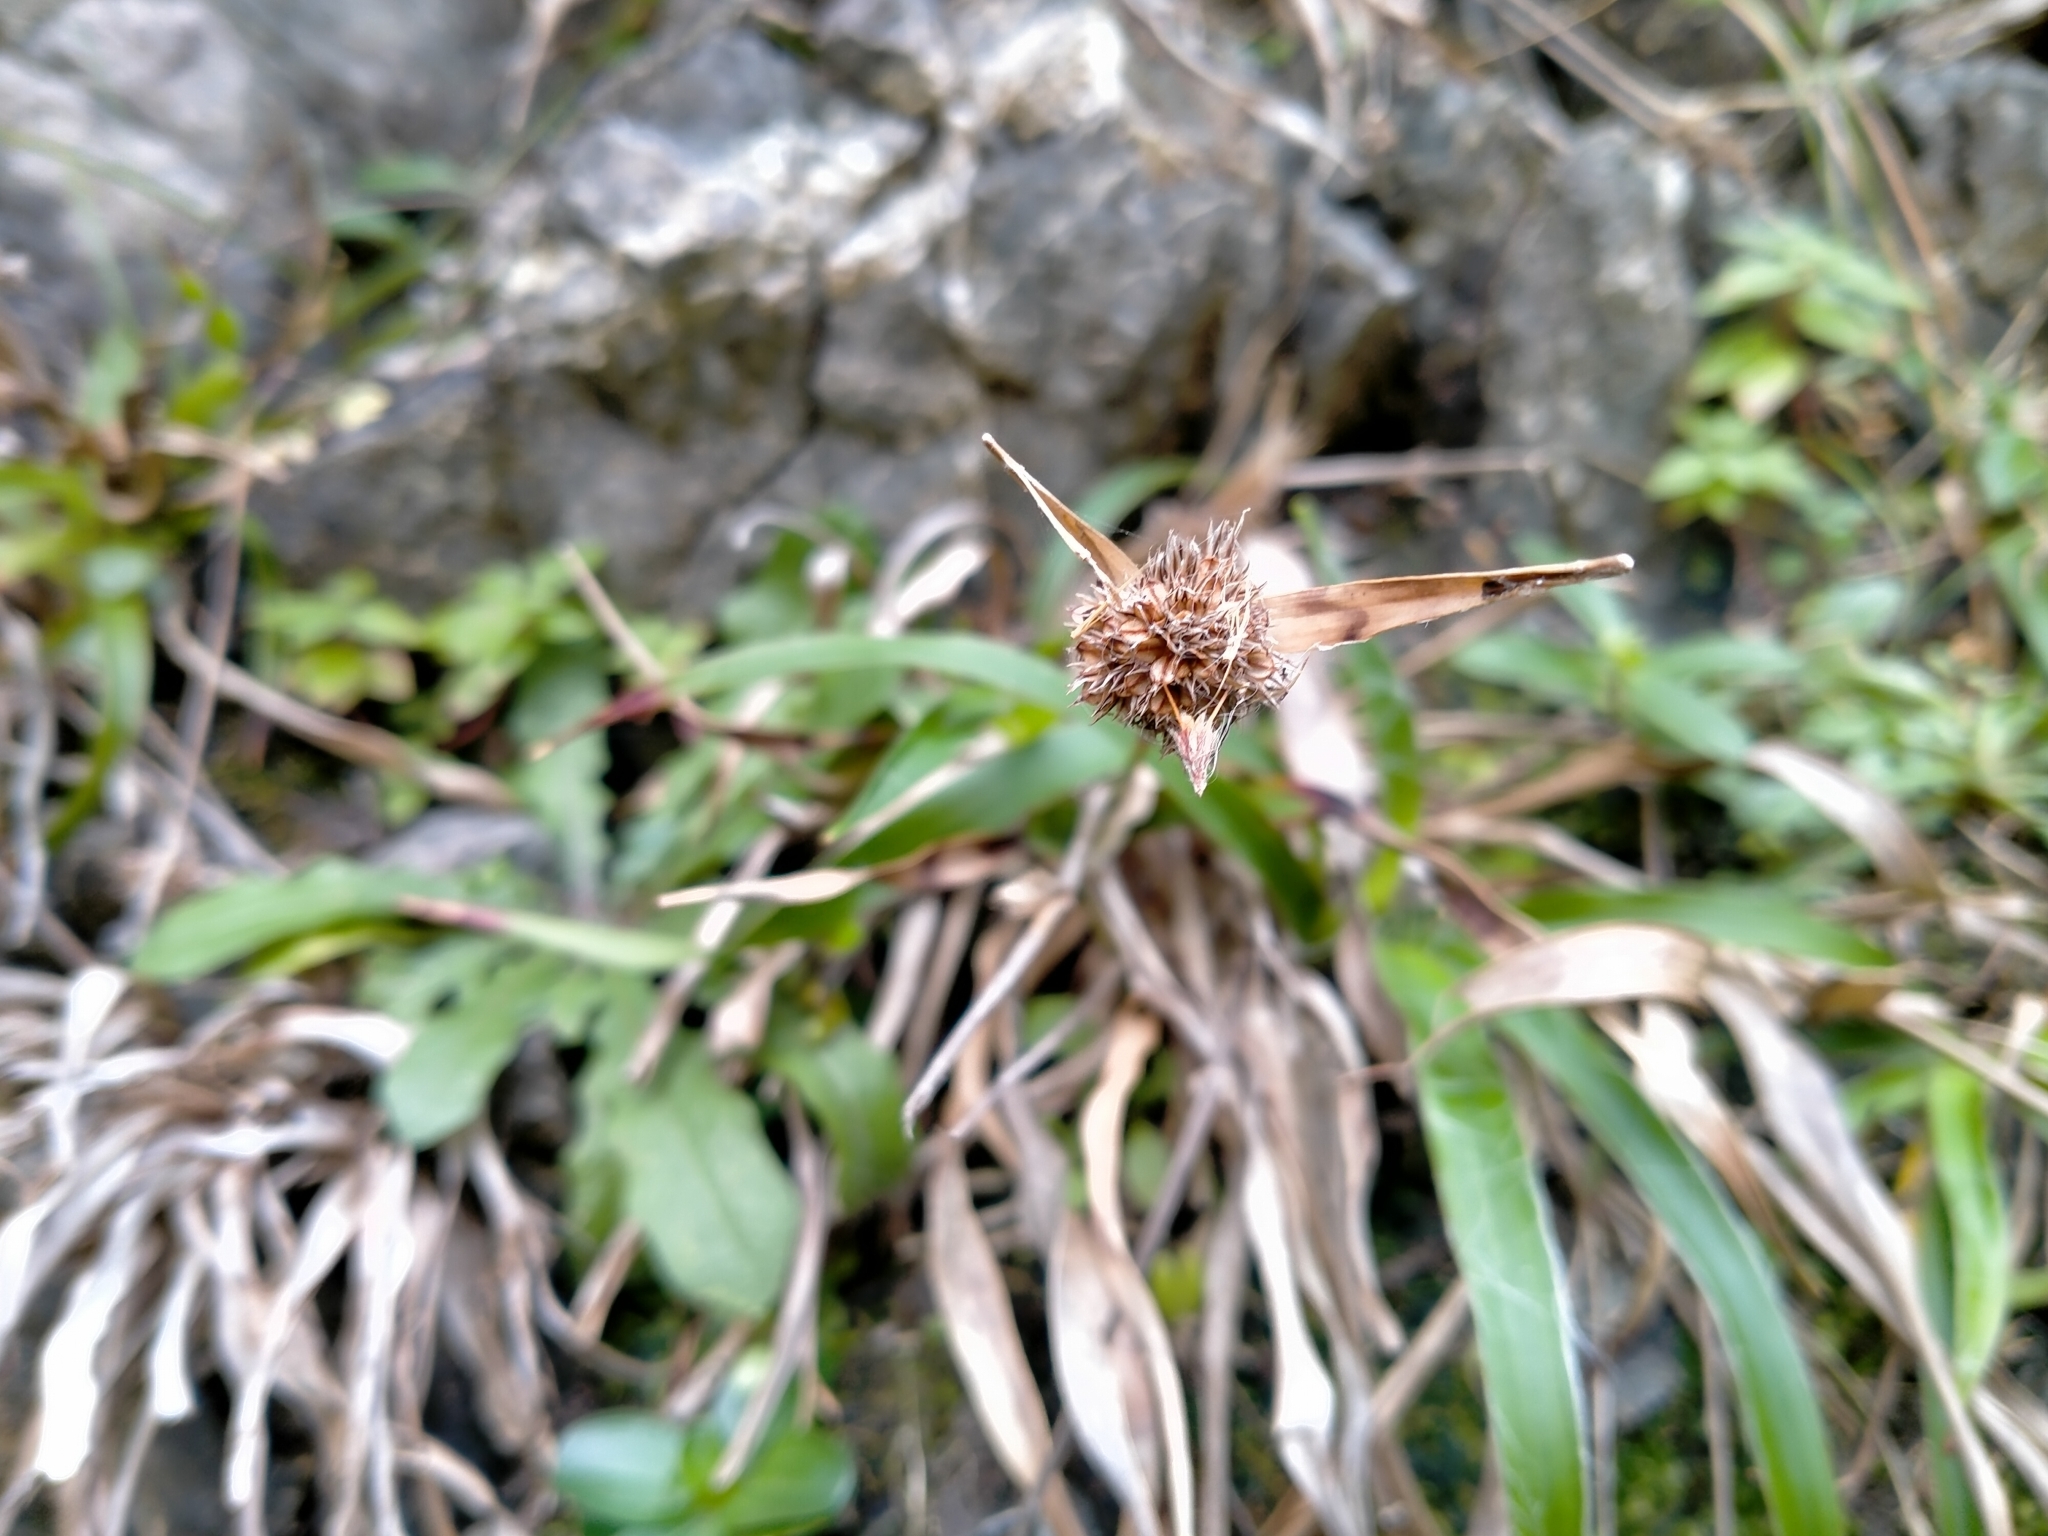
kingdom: Plantae
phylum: Tracheophyta
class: Liliopsida
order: Poales
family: Juncaceae
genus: Luzula
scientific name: Luzula banksiana
